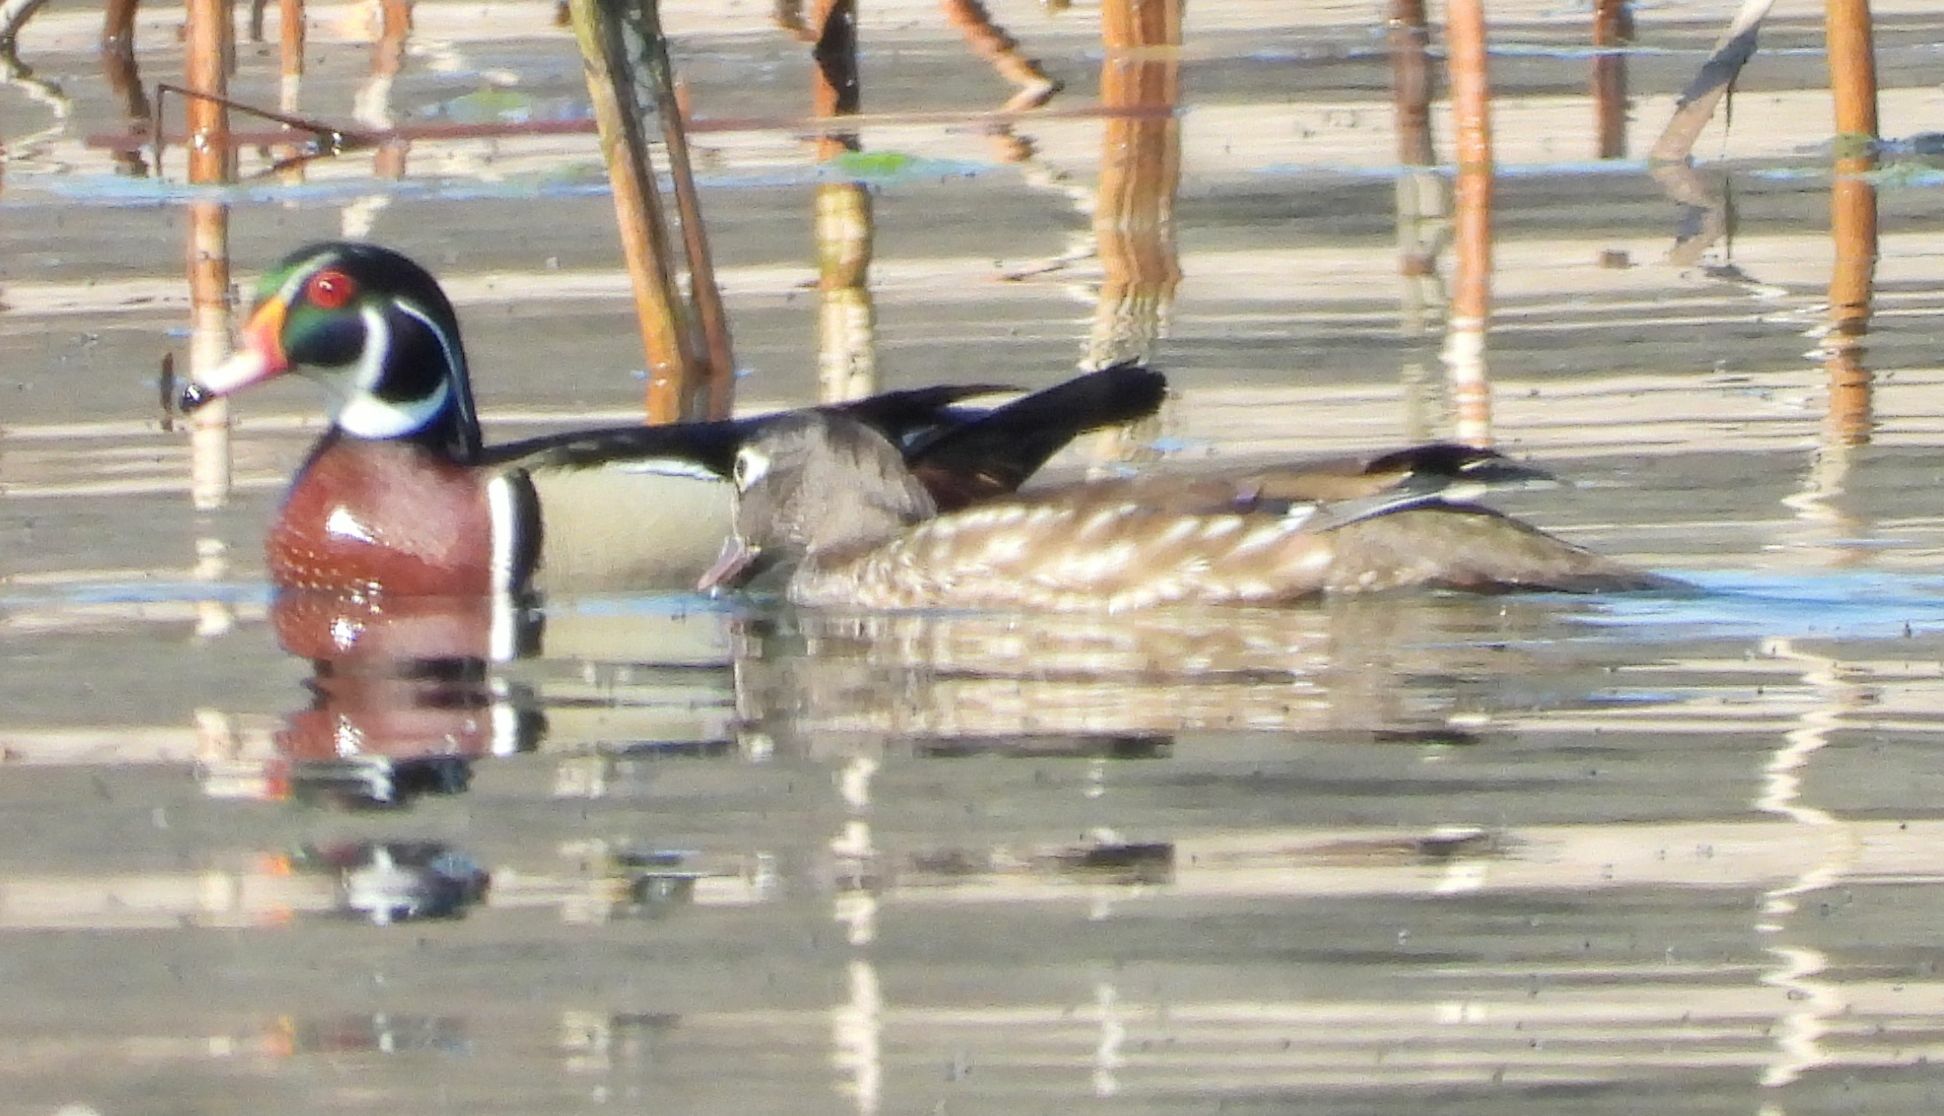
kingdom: Animalia
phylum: Chordata
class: Aves
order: Anseriformes
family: Anatidae
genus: Aix
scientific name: Aix sponsa
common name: Wood duck
